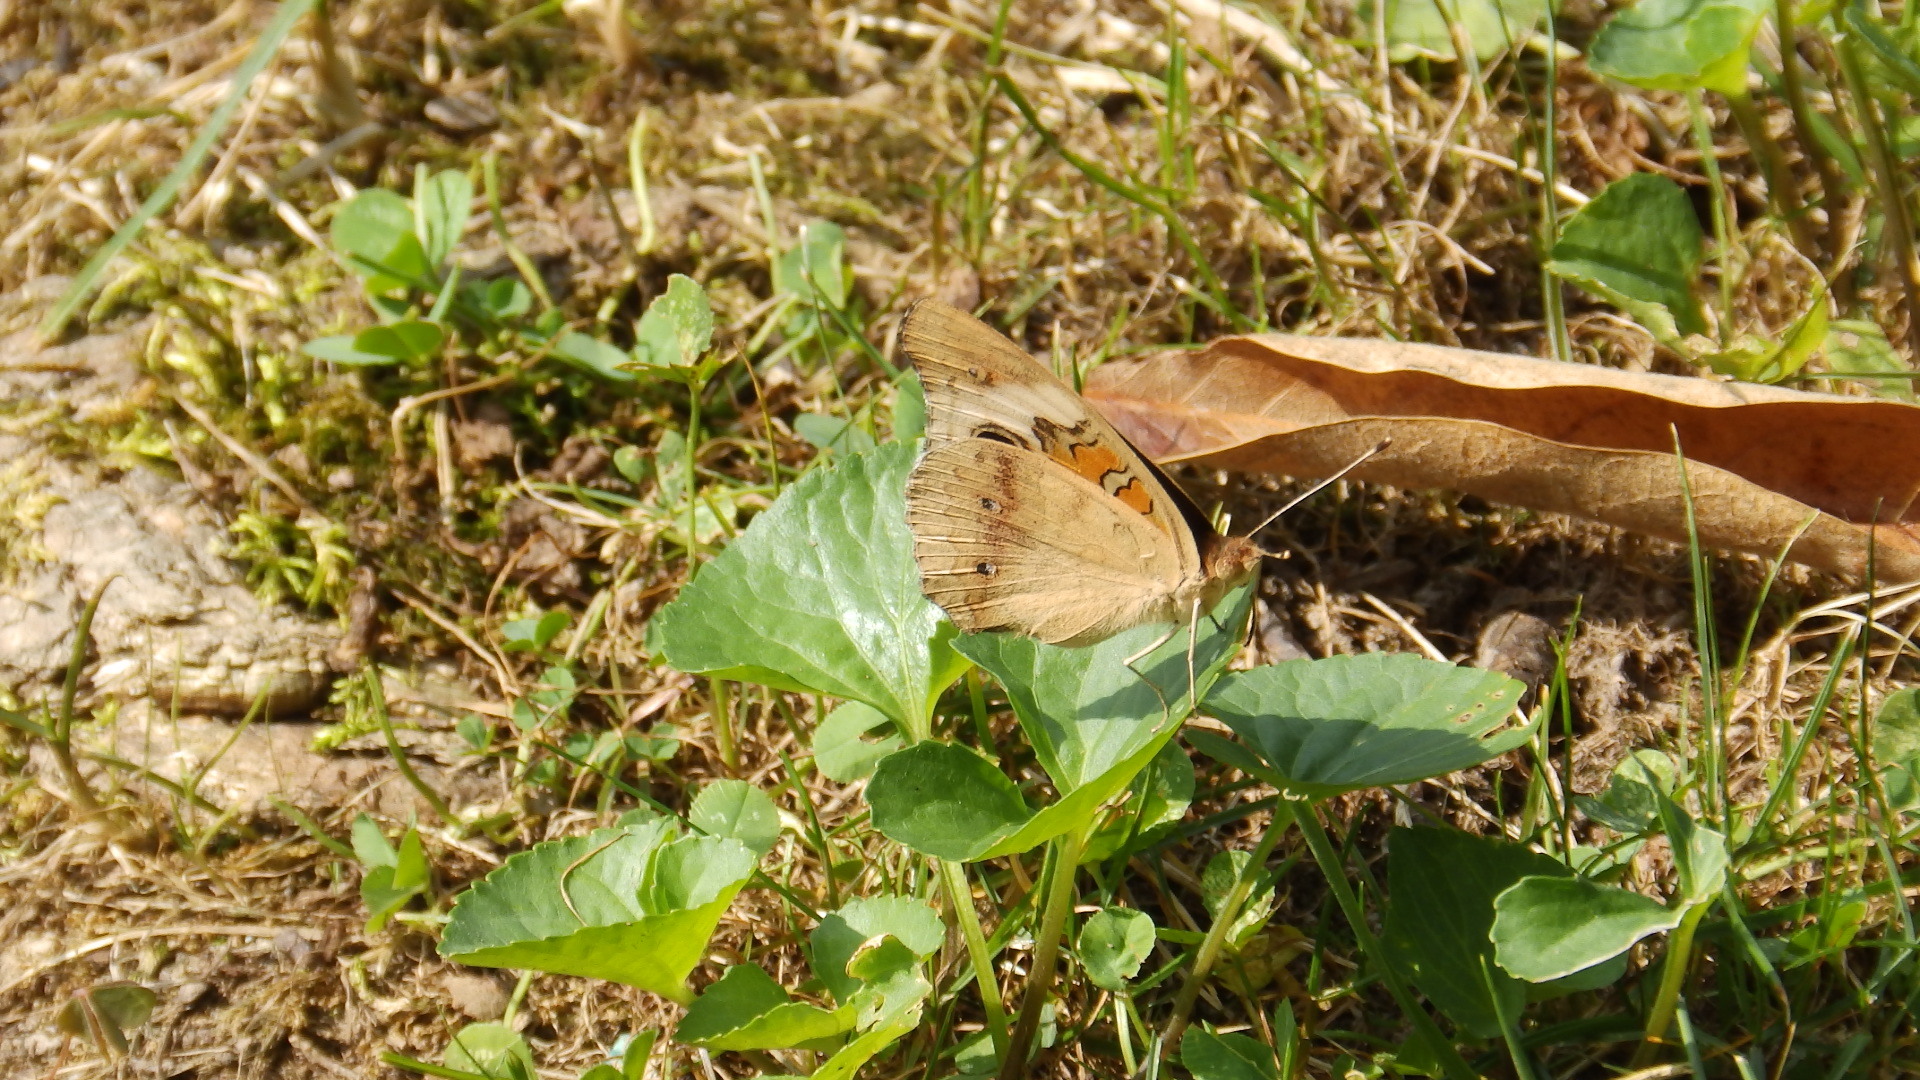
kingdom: Animalia
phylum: Arthropoda
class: Insecta
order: Lepidoptera
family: Nymphalidae
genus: Junonia
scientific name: Junonia coenia
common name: Common buckeye
